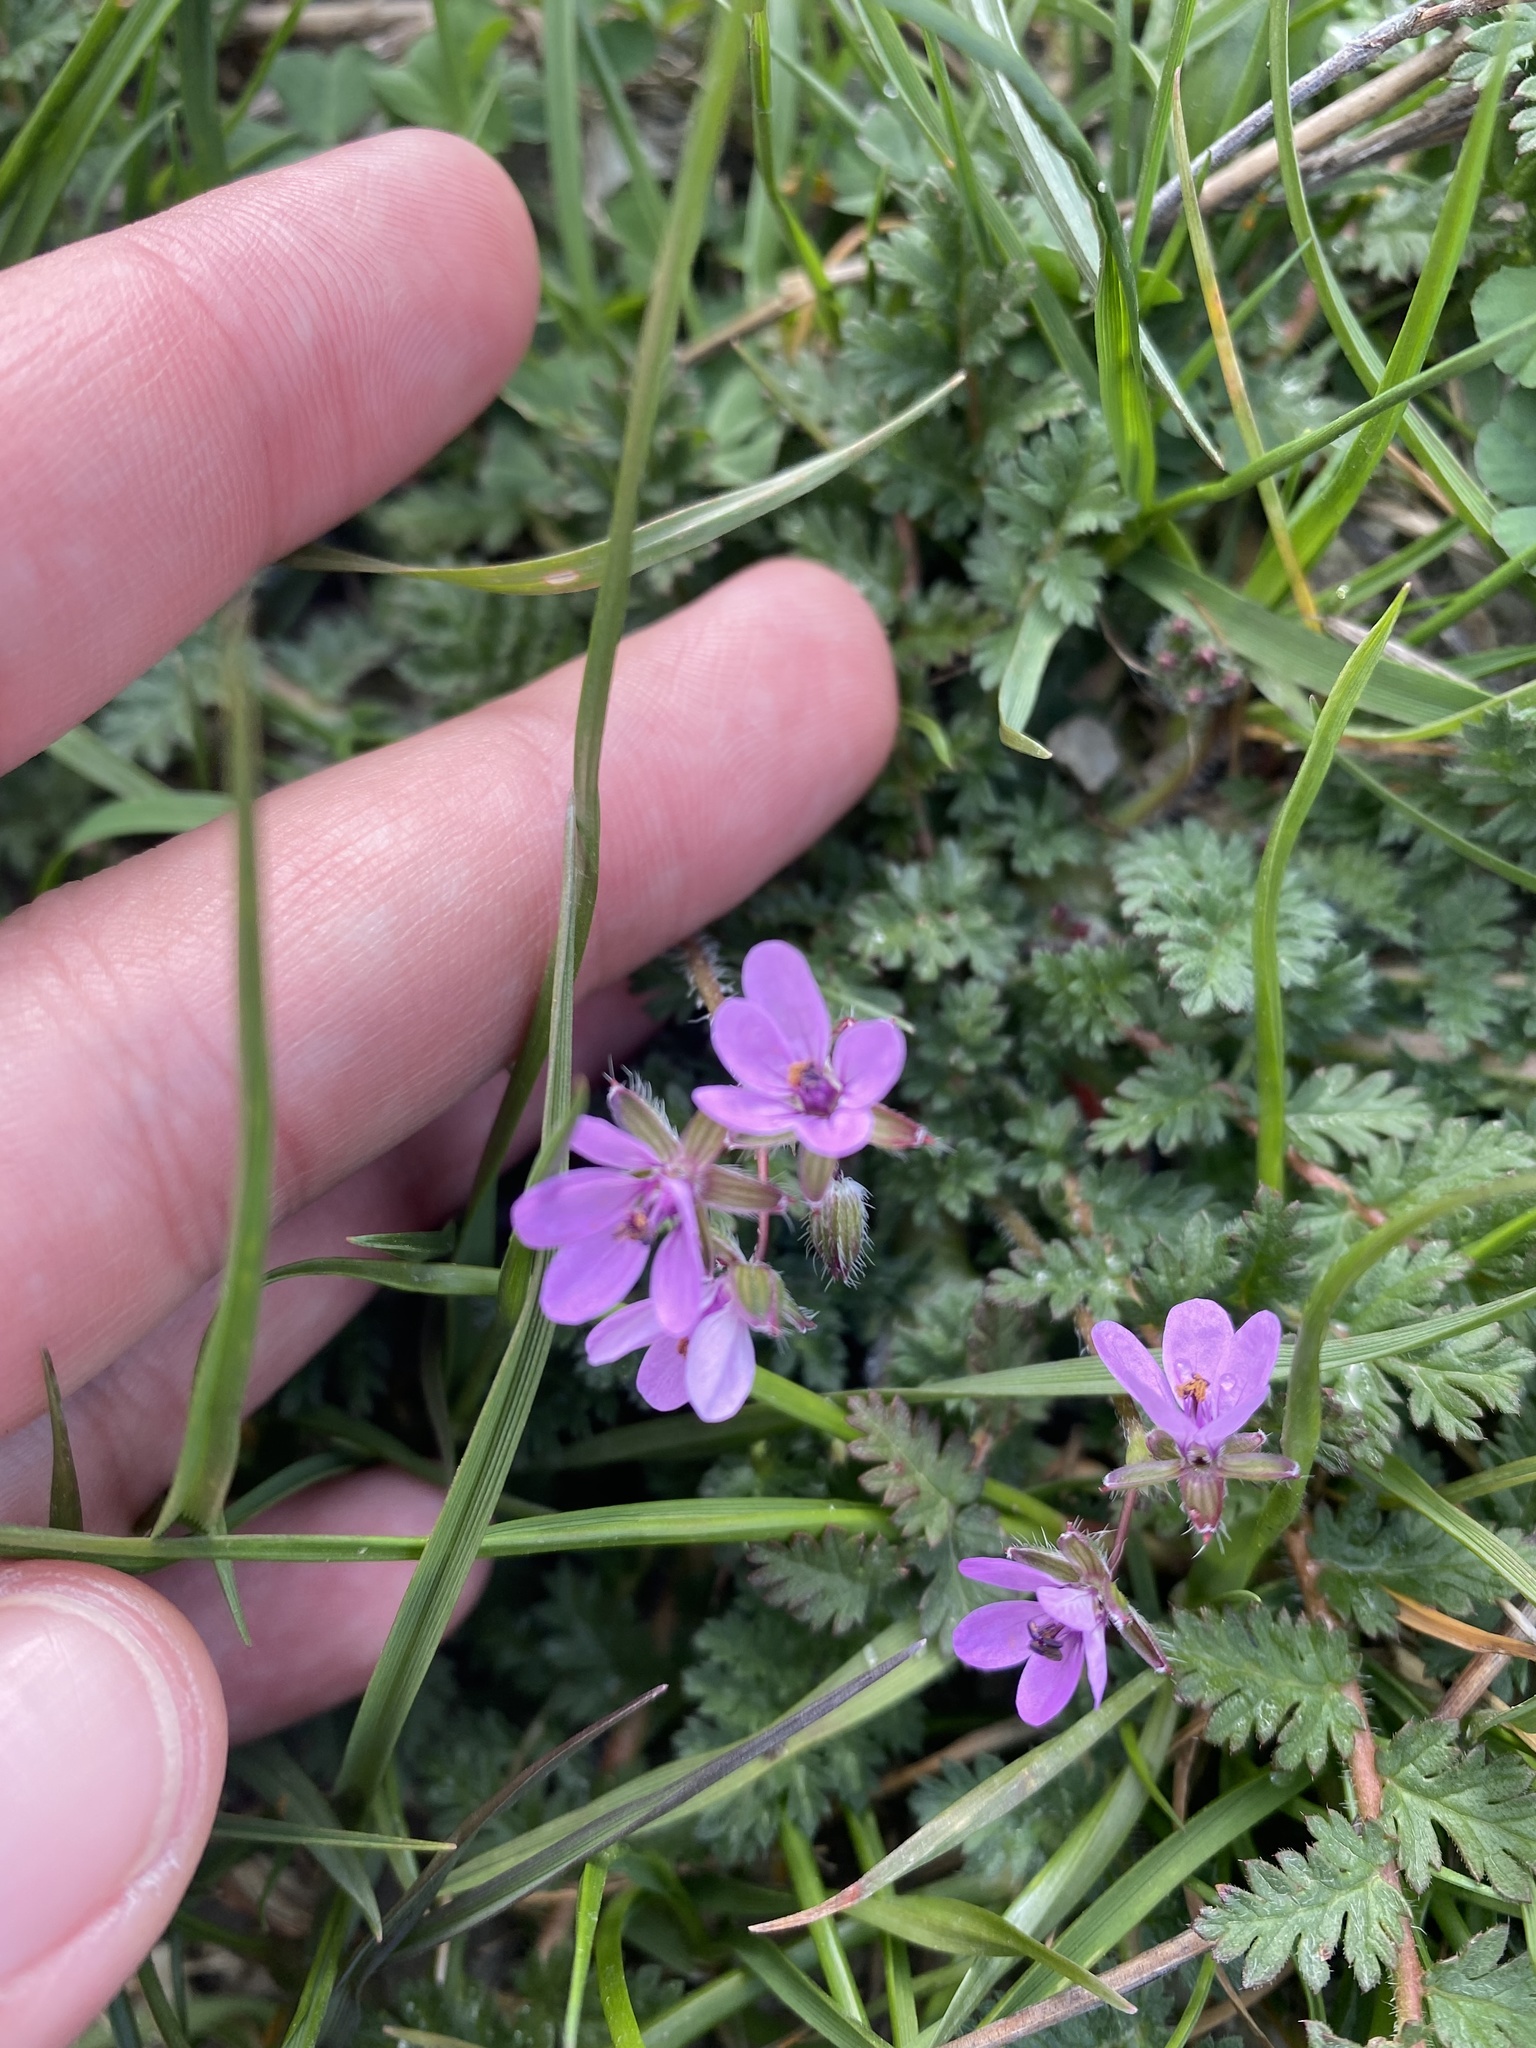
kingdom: Plantae
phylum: Tracheophyta
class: Magnoliopsida
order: Geraniales
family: Geraniaceae
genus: Erodium
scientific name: Erodium cicutarium
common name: Common stork's-bill
